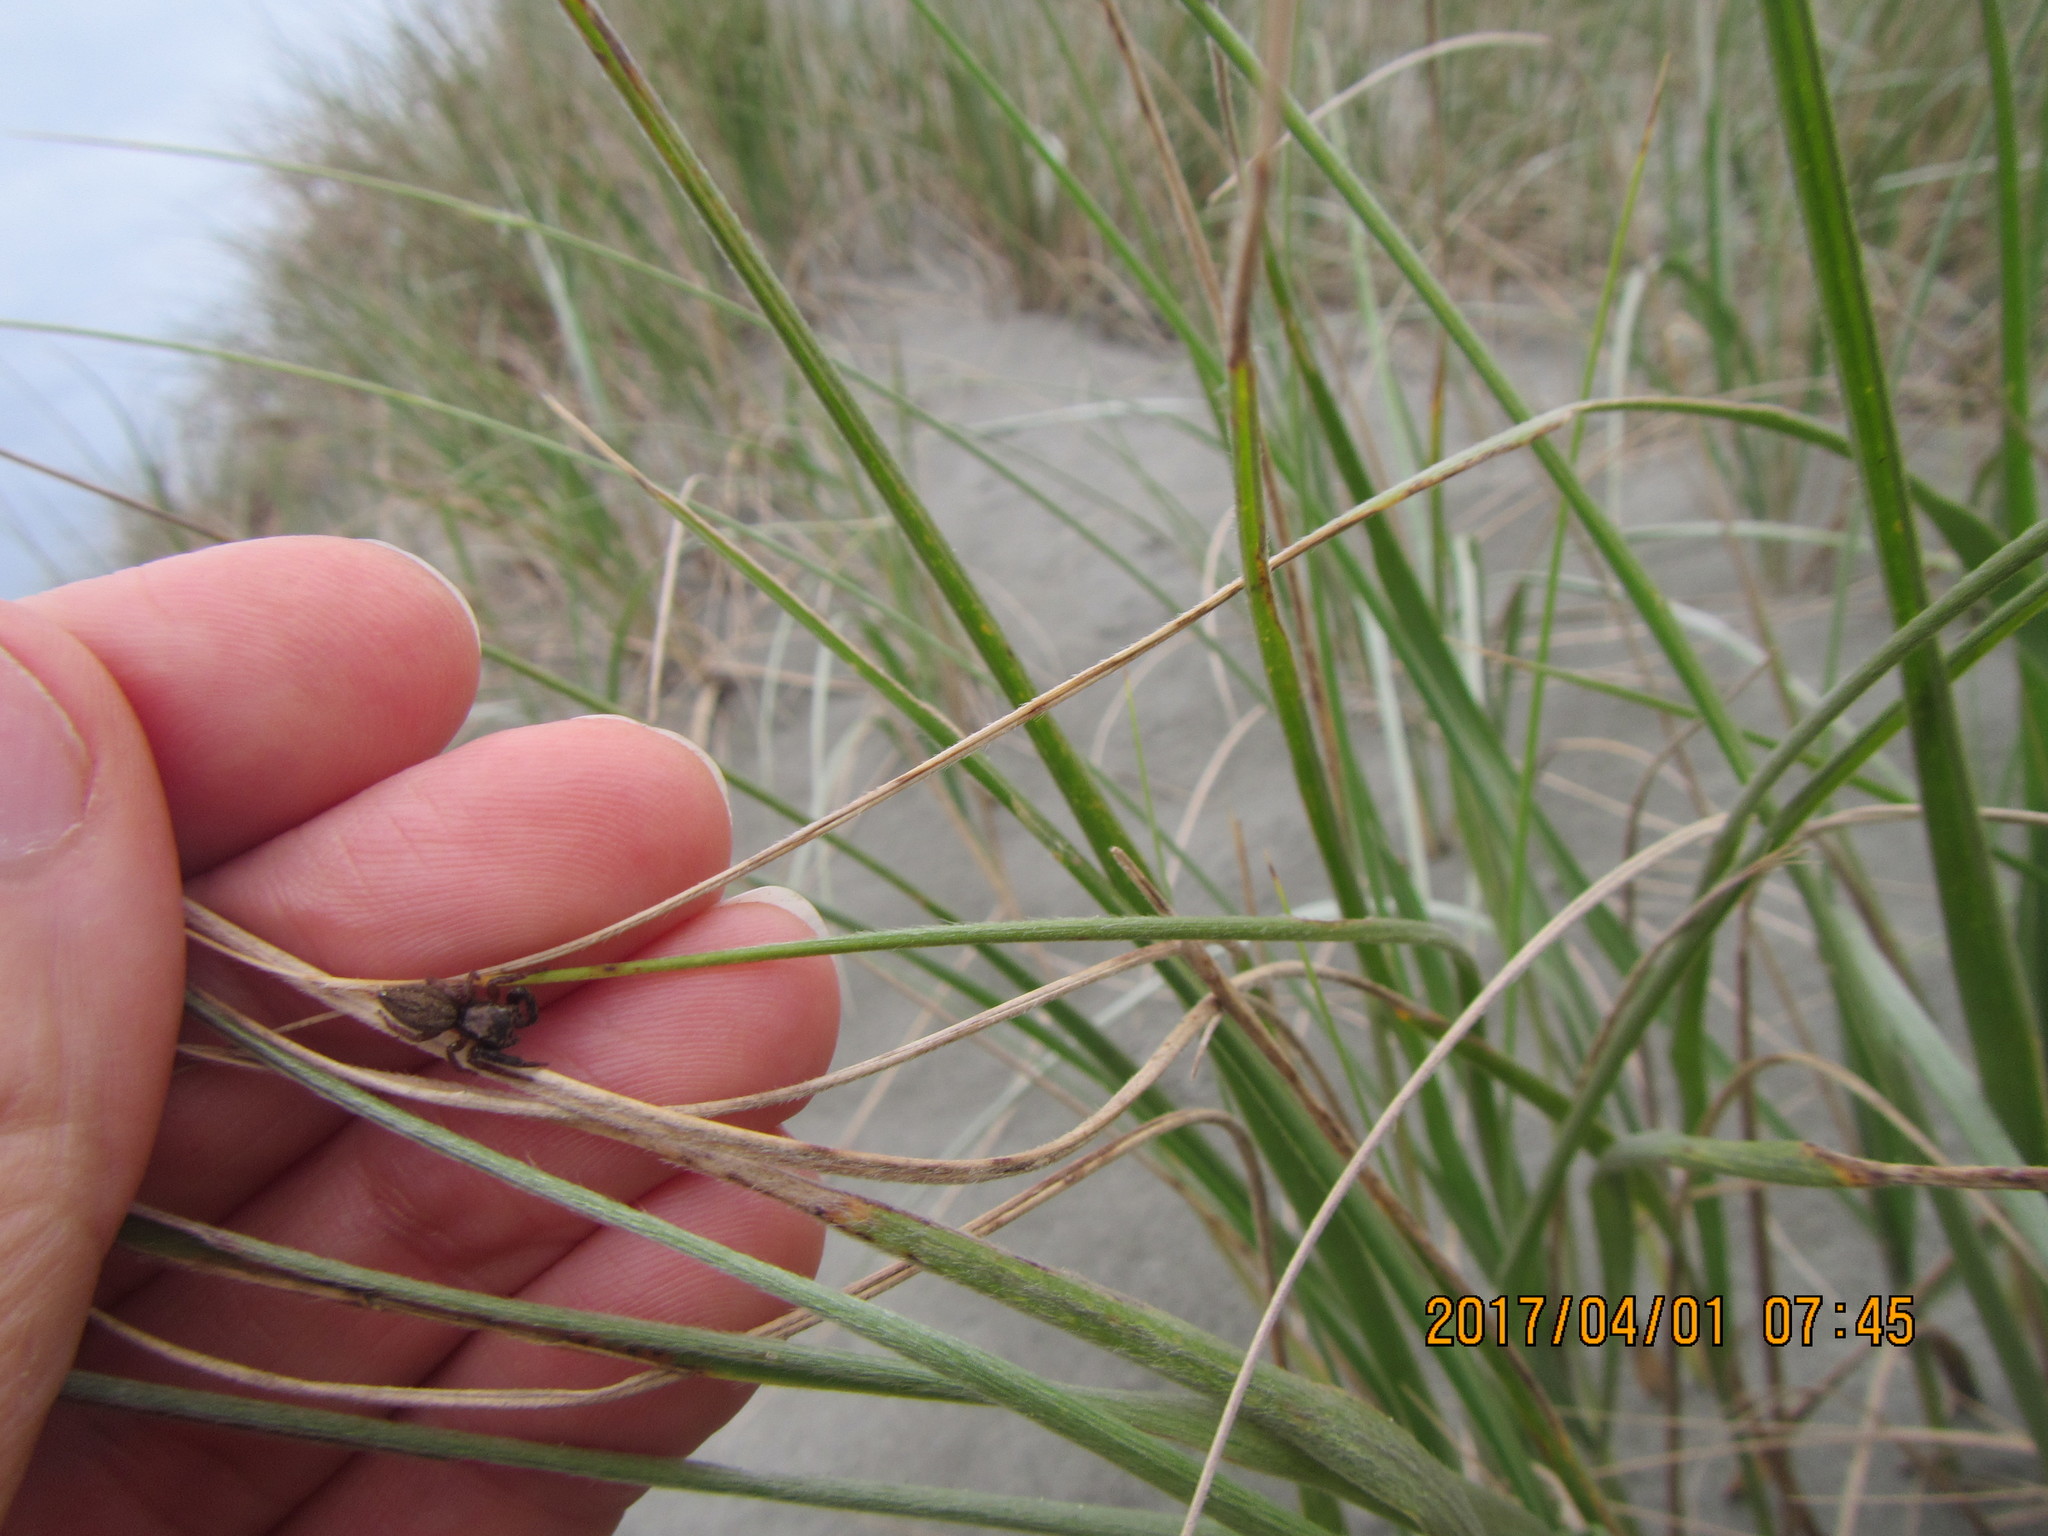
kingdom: Animalia
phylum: Arthropoda
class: Arachnida
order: Araneae
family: Salticidae
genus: Trite
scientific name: Trite auricoma
